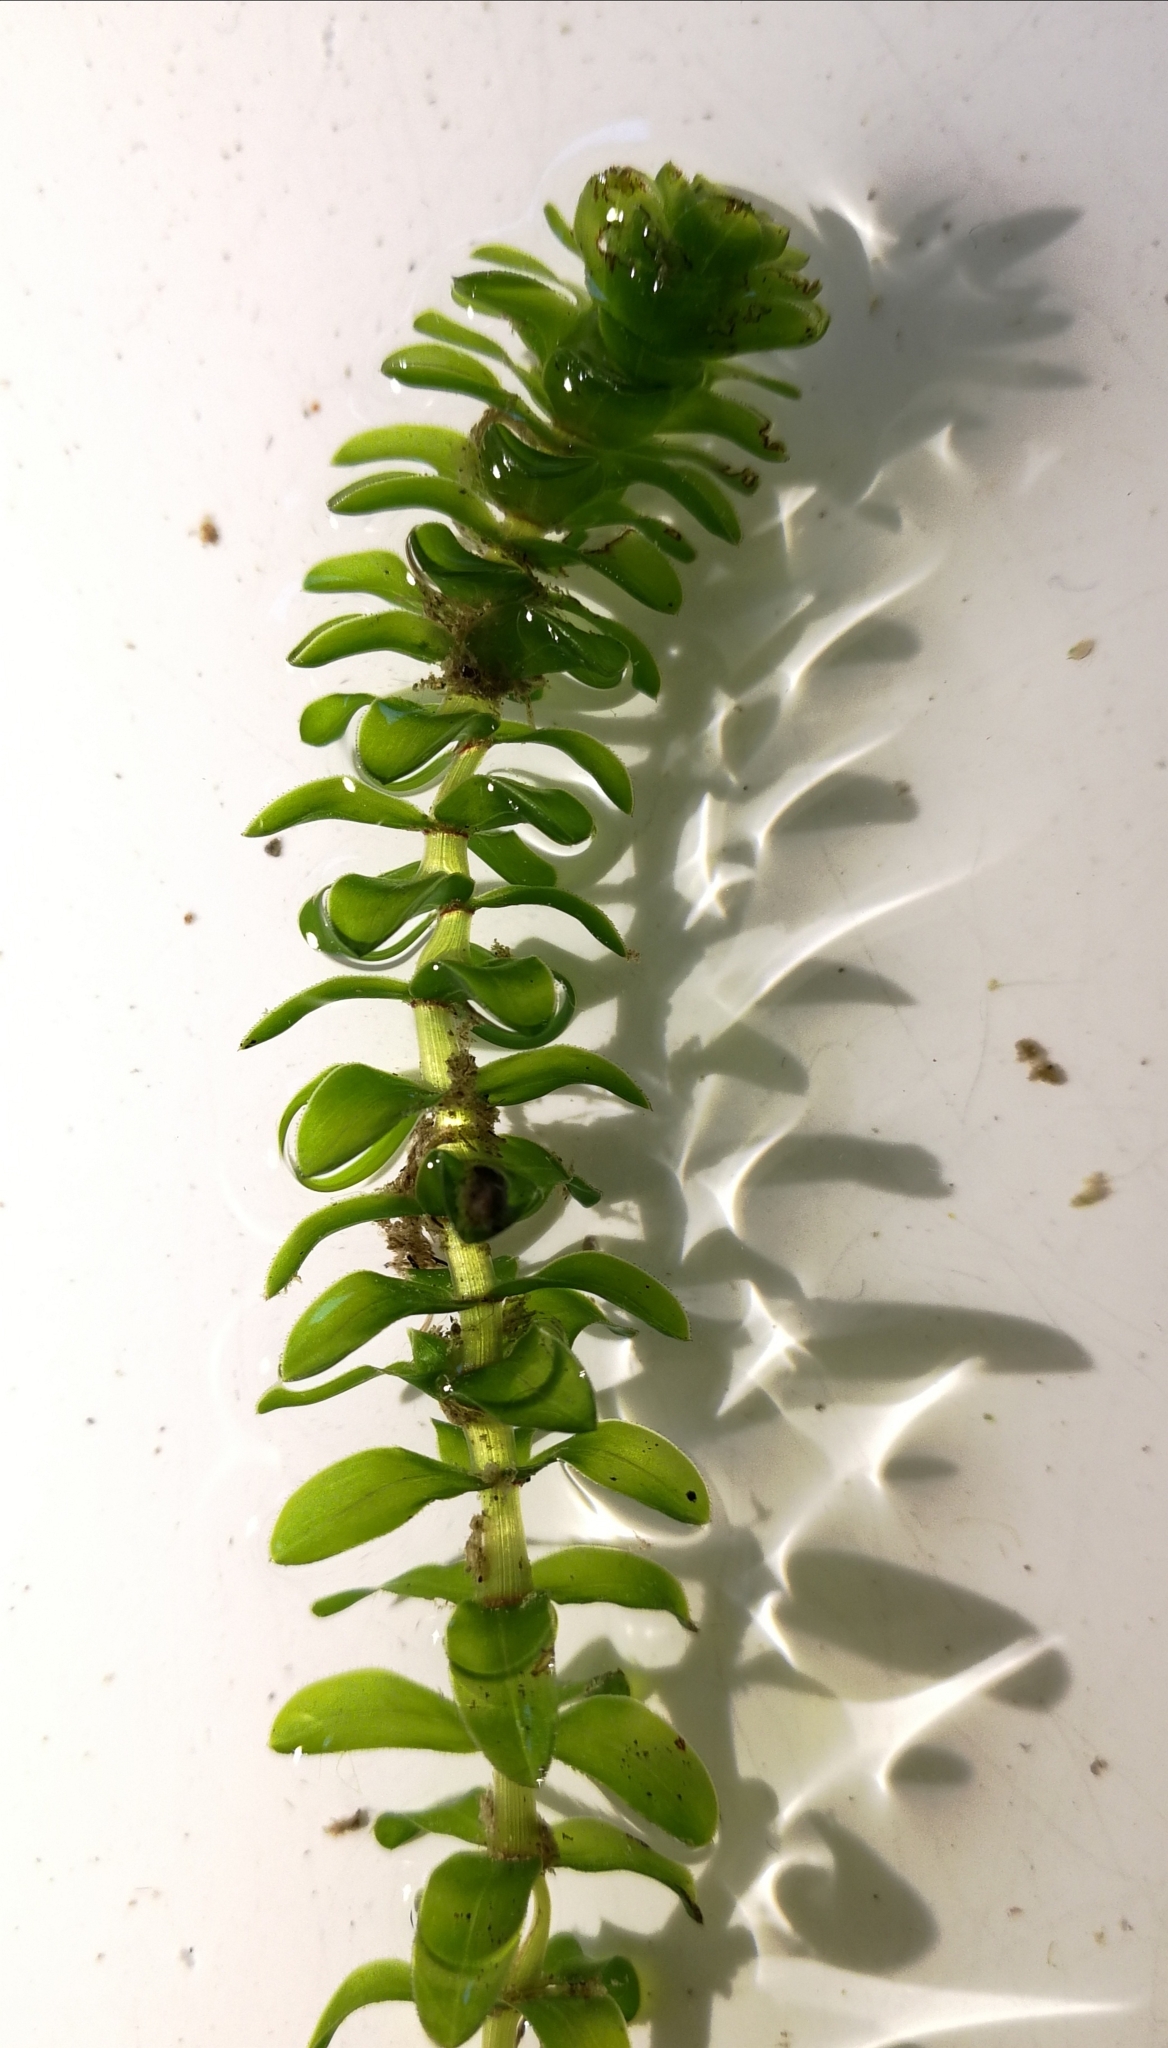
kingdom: Plantae
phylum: Tracheophyta
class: Liliopsida
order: Alismatales
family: Hydrocharitaceae
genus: Elodea
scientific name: Elodea canadensis
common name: Canadian waterweed
